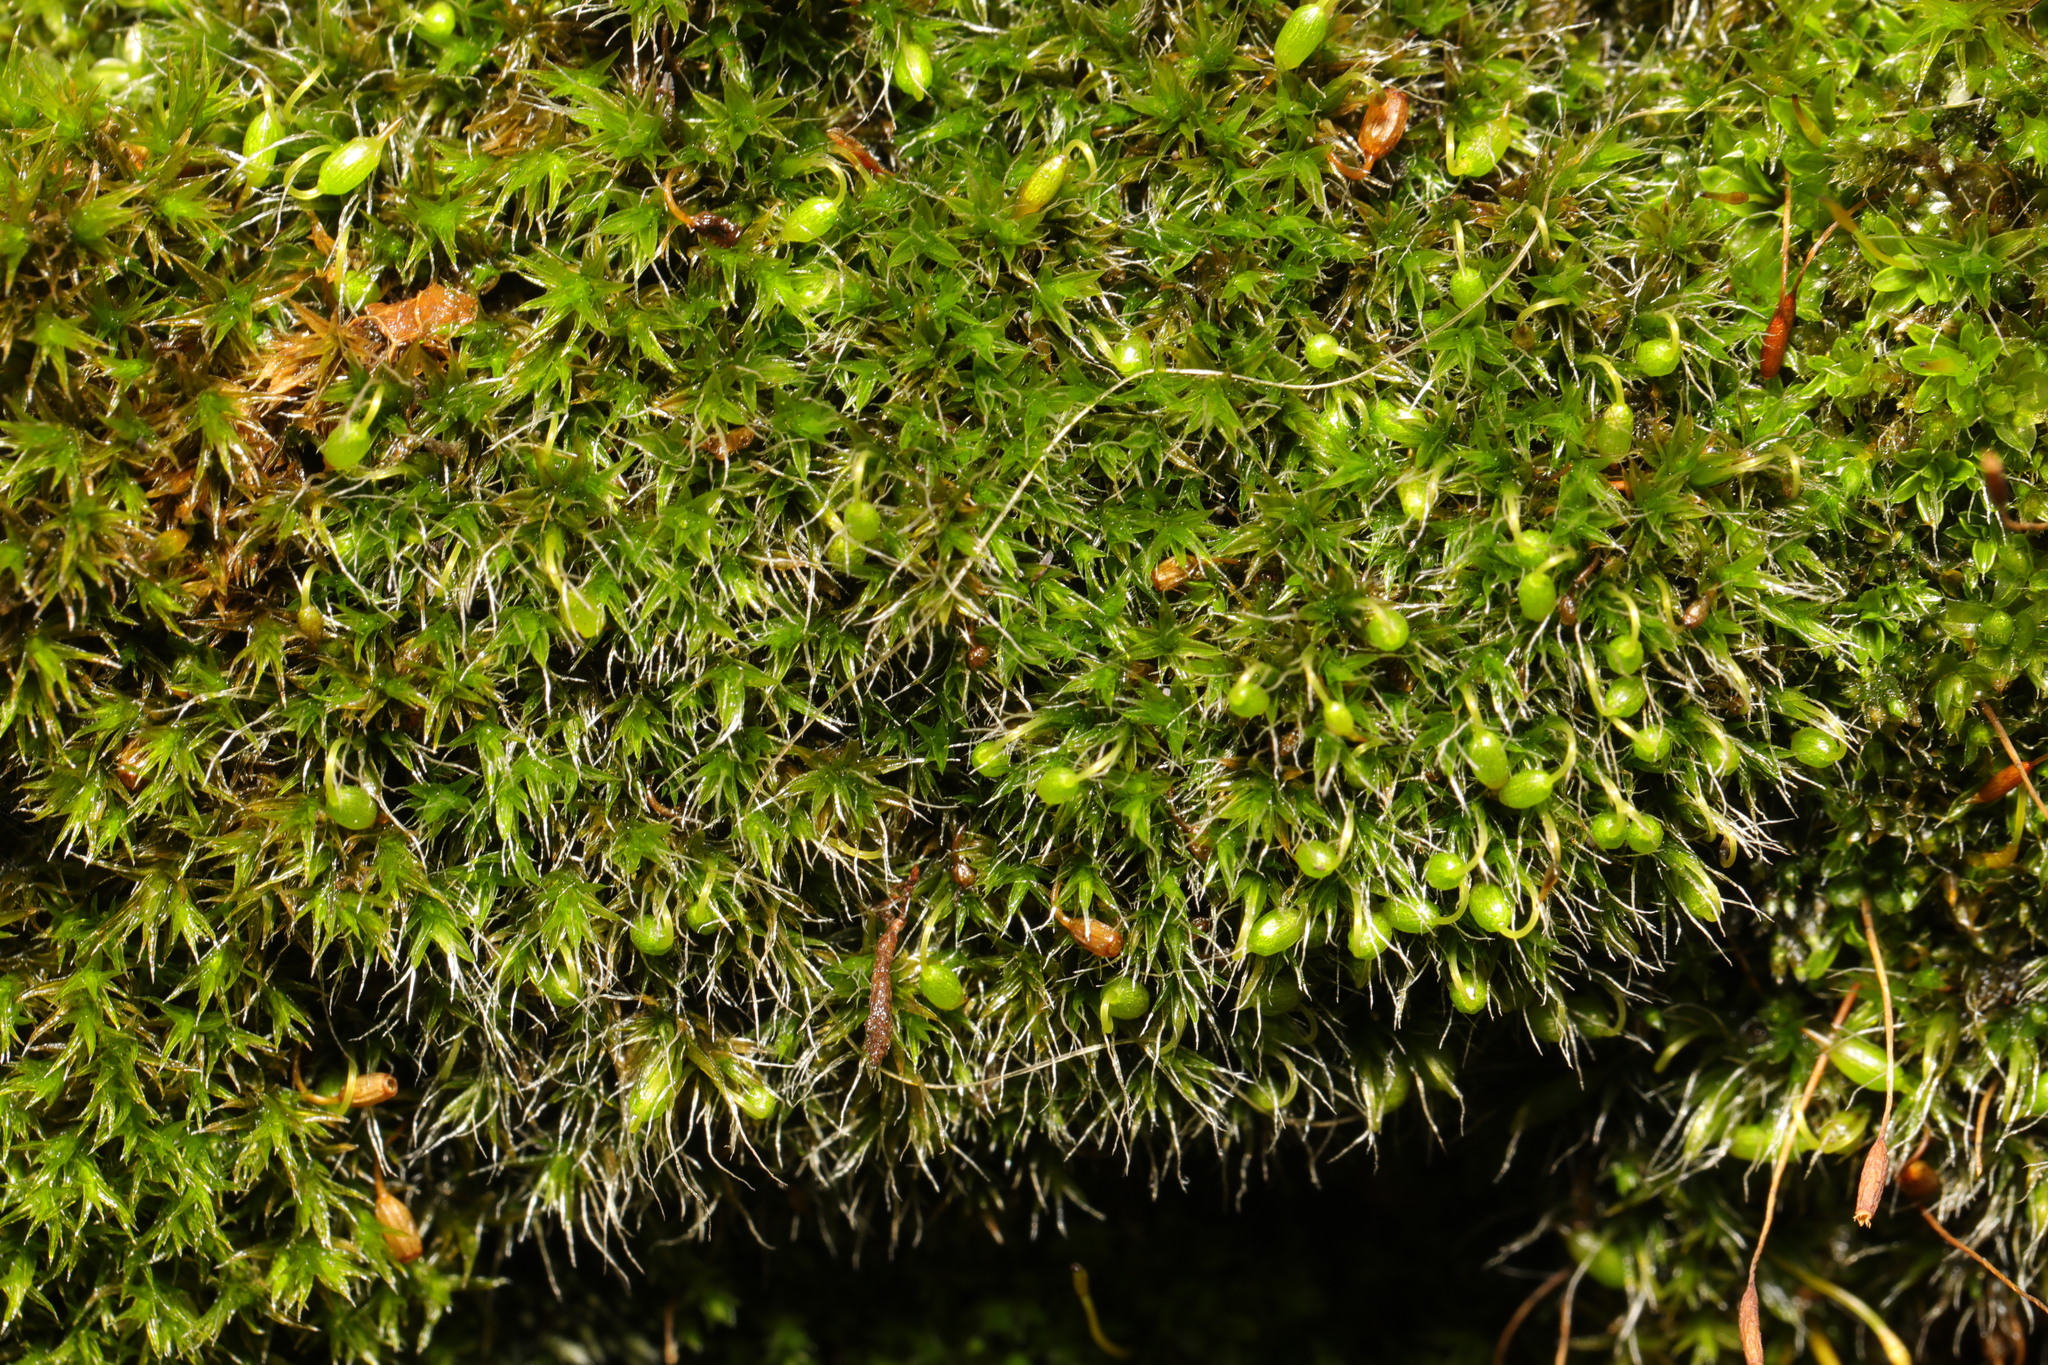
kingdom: Plantae
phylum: Bryophyta
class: Bryopsida
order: Grimmiales
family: Grimmiaceae
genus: Grimmia
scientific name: Grimmia pulvinata
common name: Grey-cushioned grimmia
